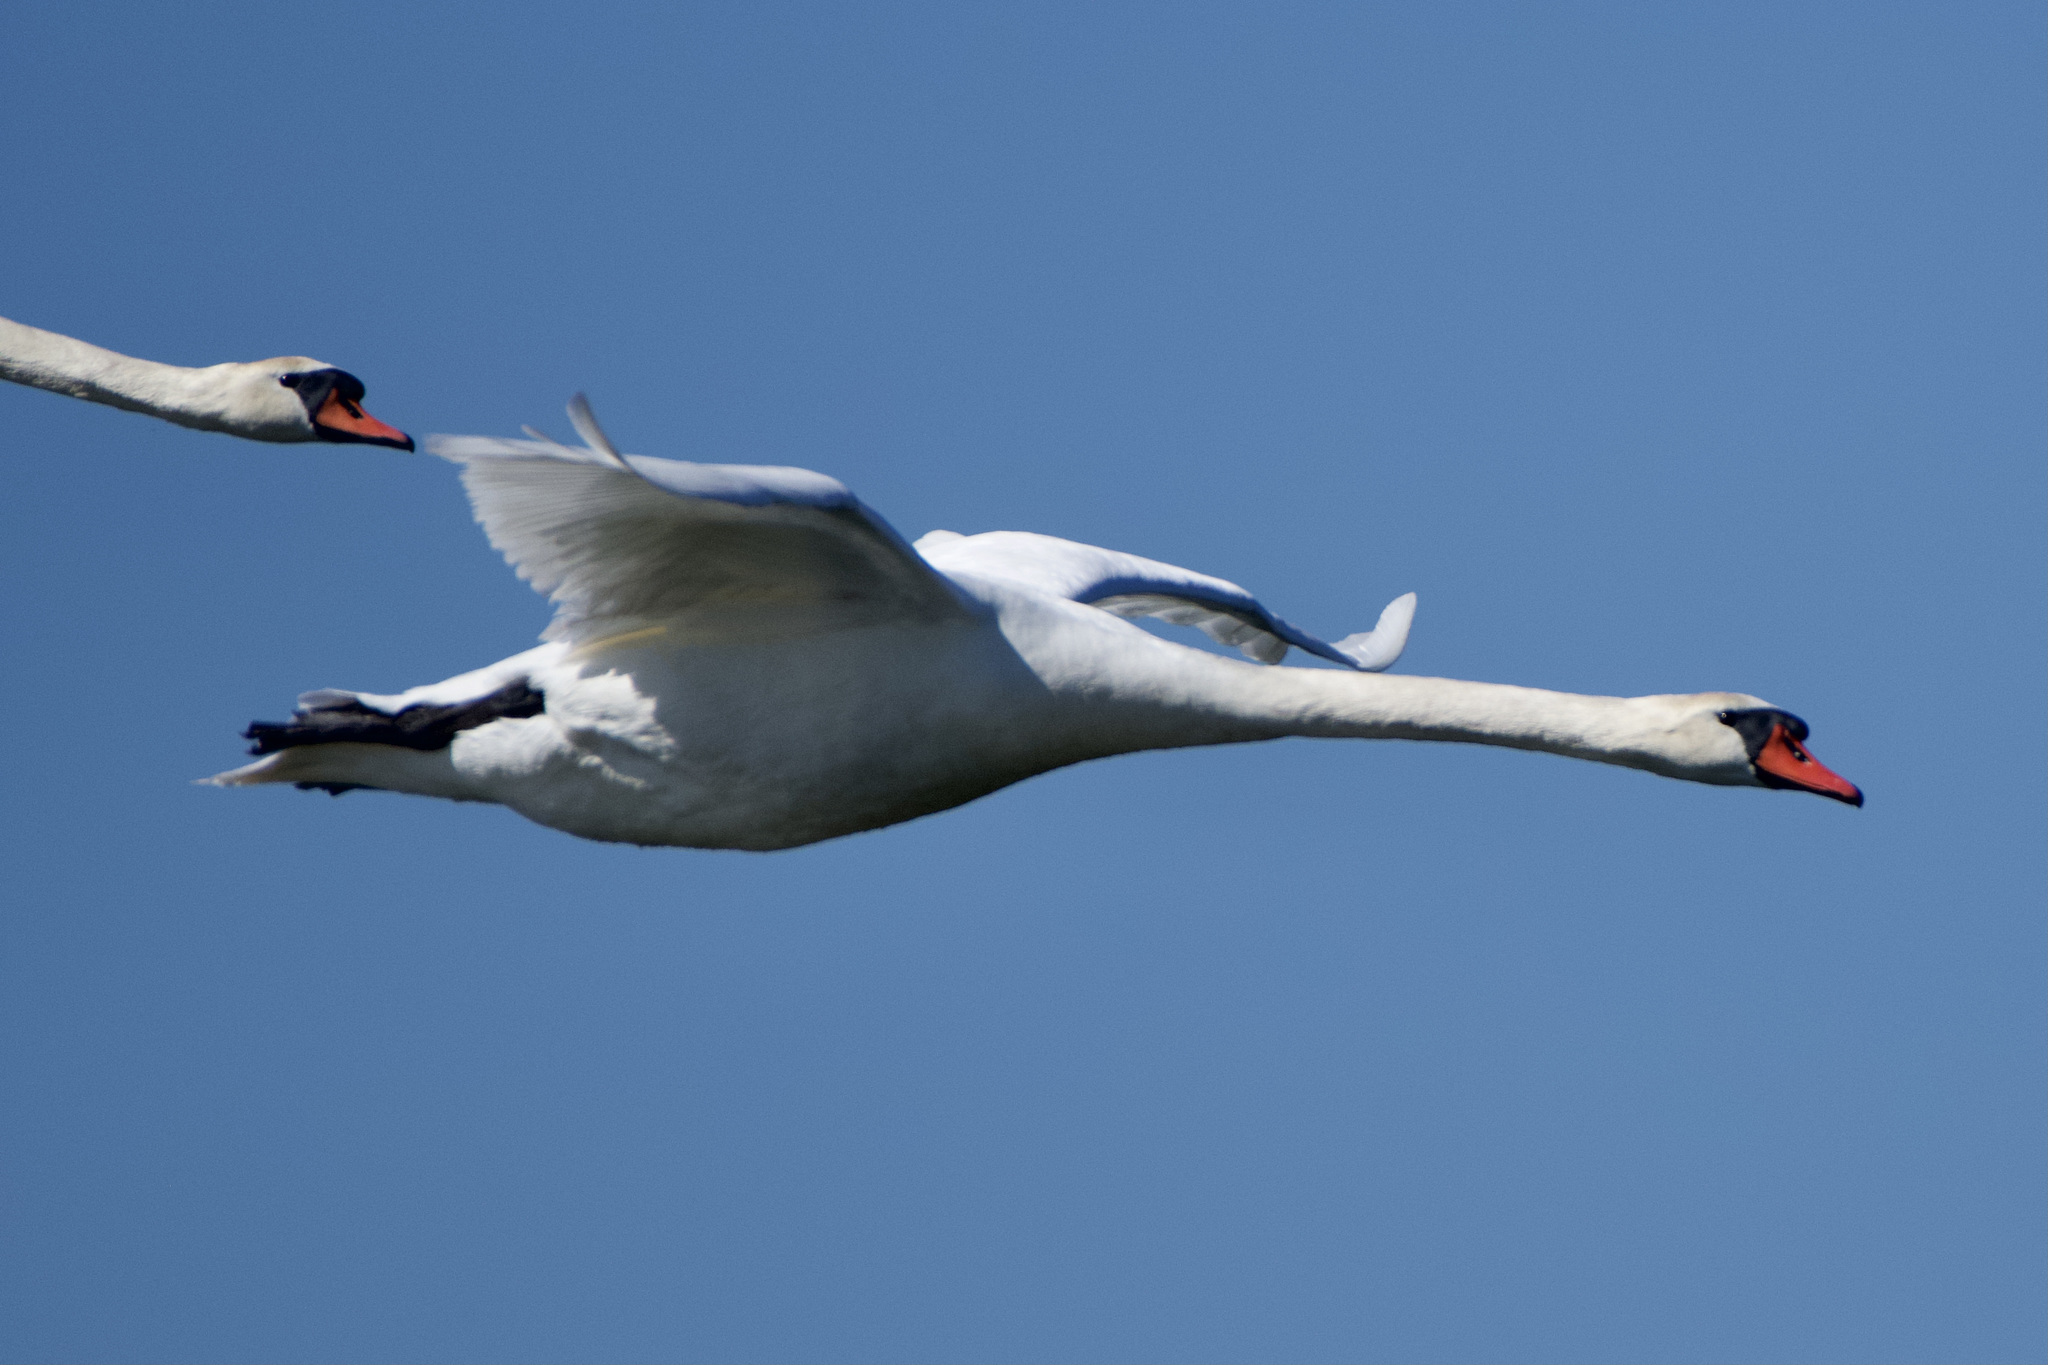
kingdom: Animalia
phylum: Chordata
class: Aves
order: Anseriformes
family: Anatidae
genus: Cygnus
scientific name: Cygnus olor
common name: Mute swan
